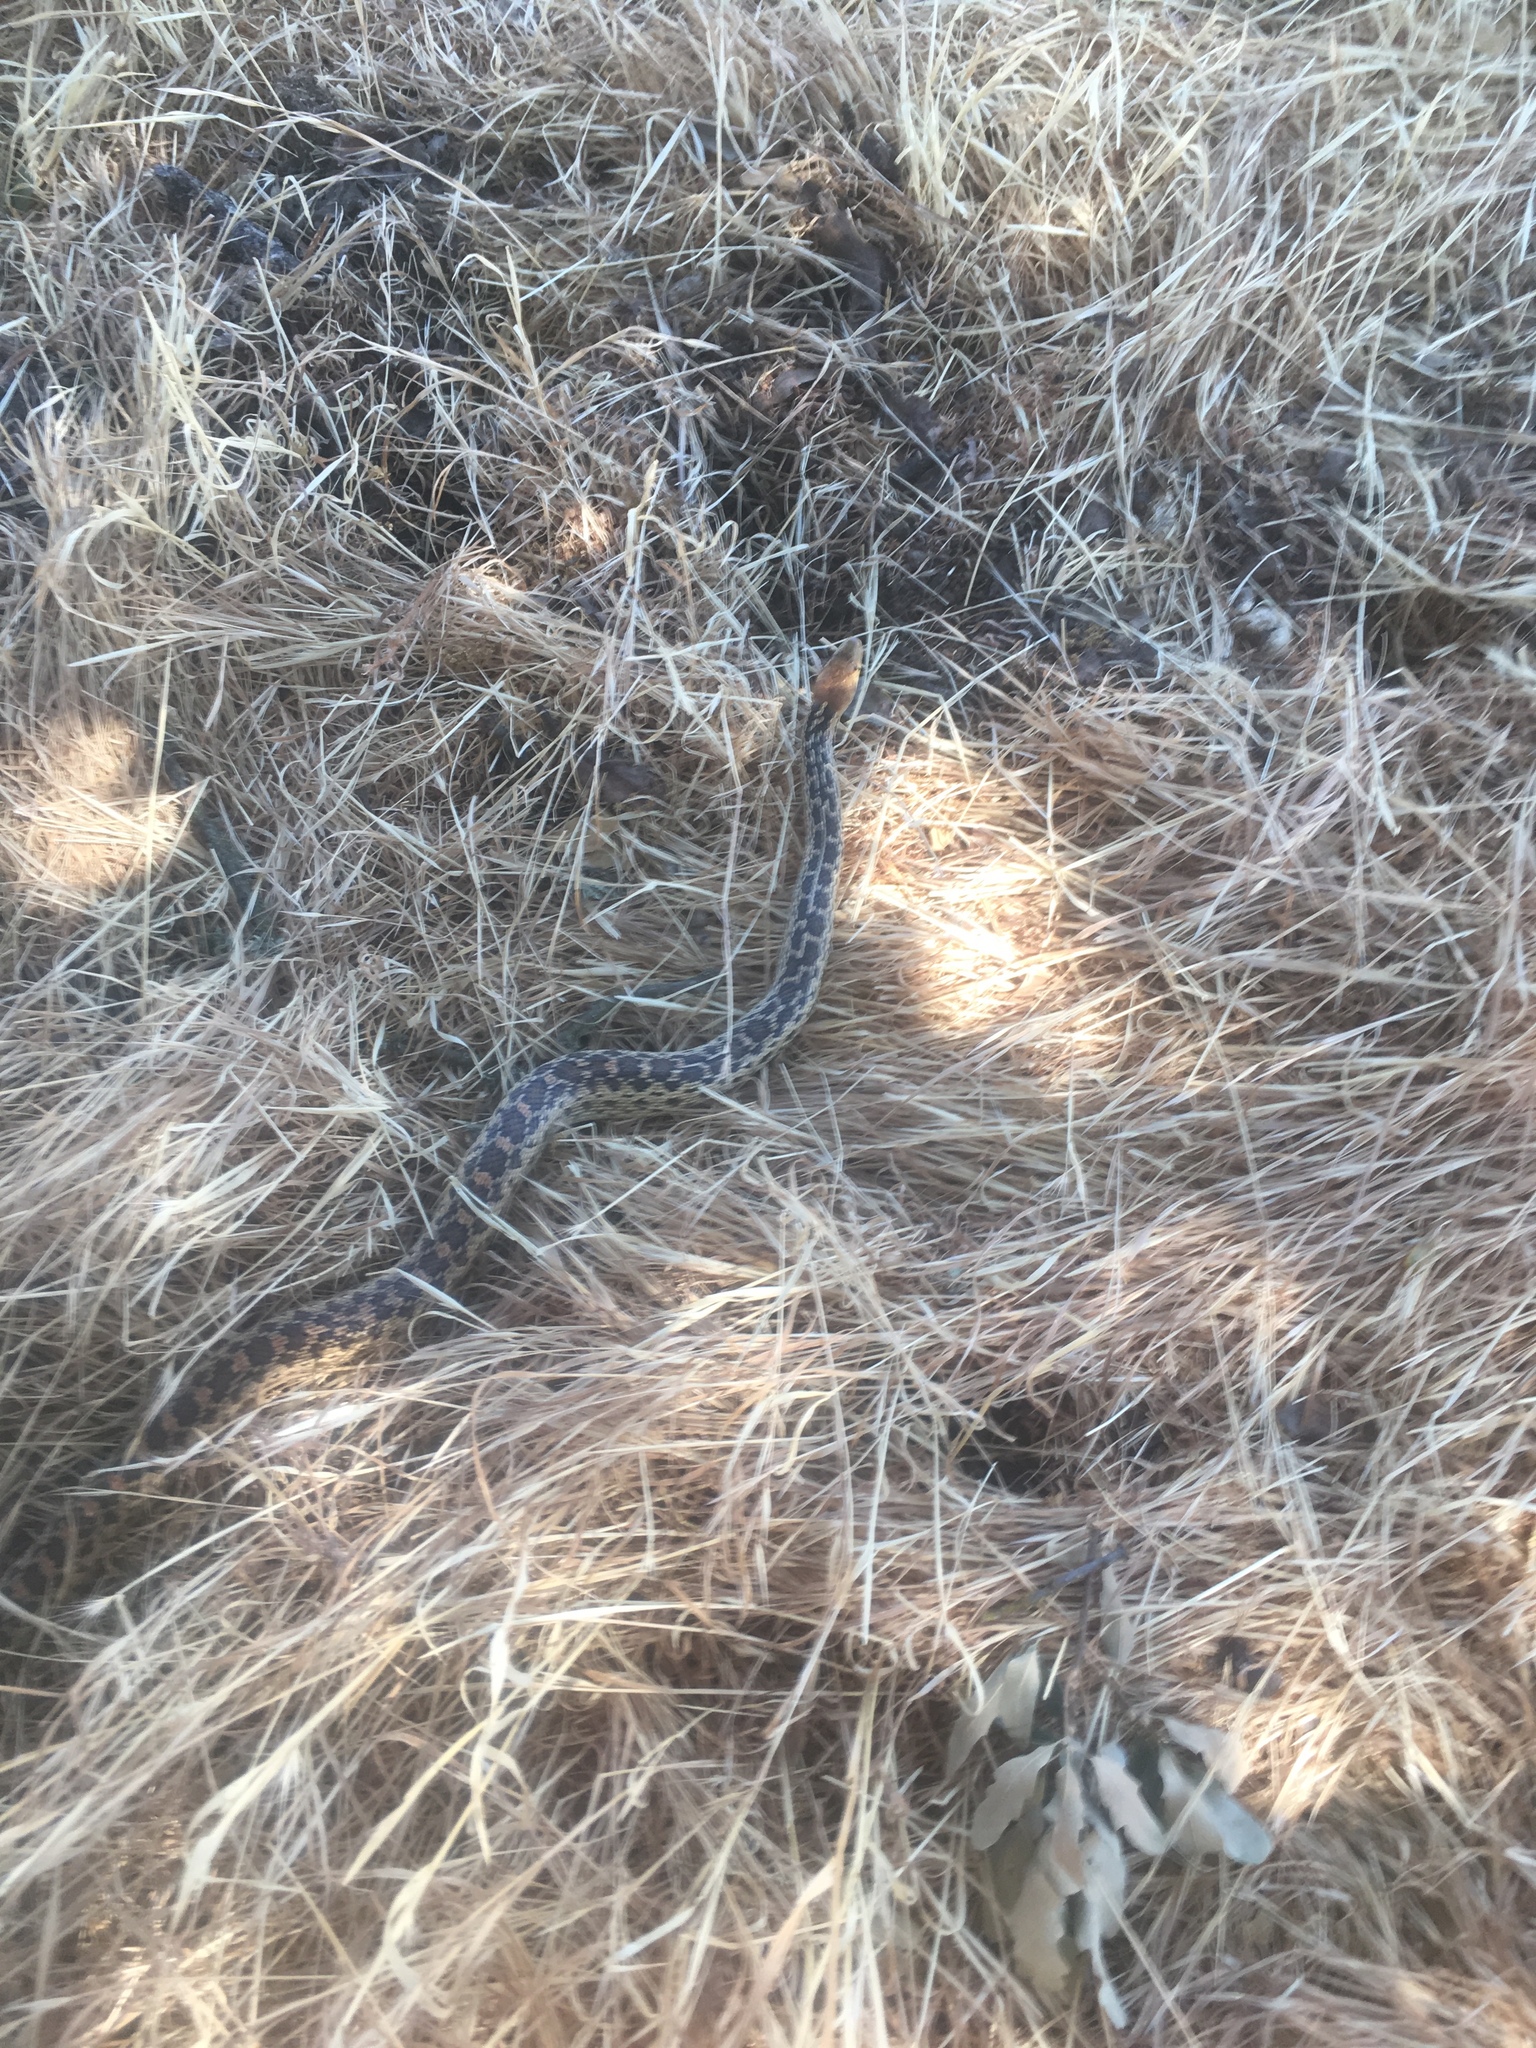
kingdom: Animalia
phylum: Chordata
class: Squamata
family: Colubridae
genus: Pituophis
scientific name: Pituophis catenifer
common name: Gopher snake
